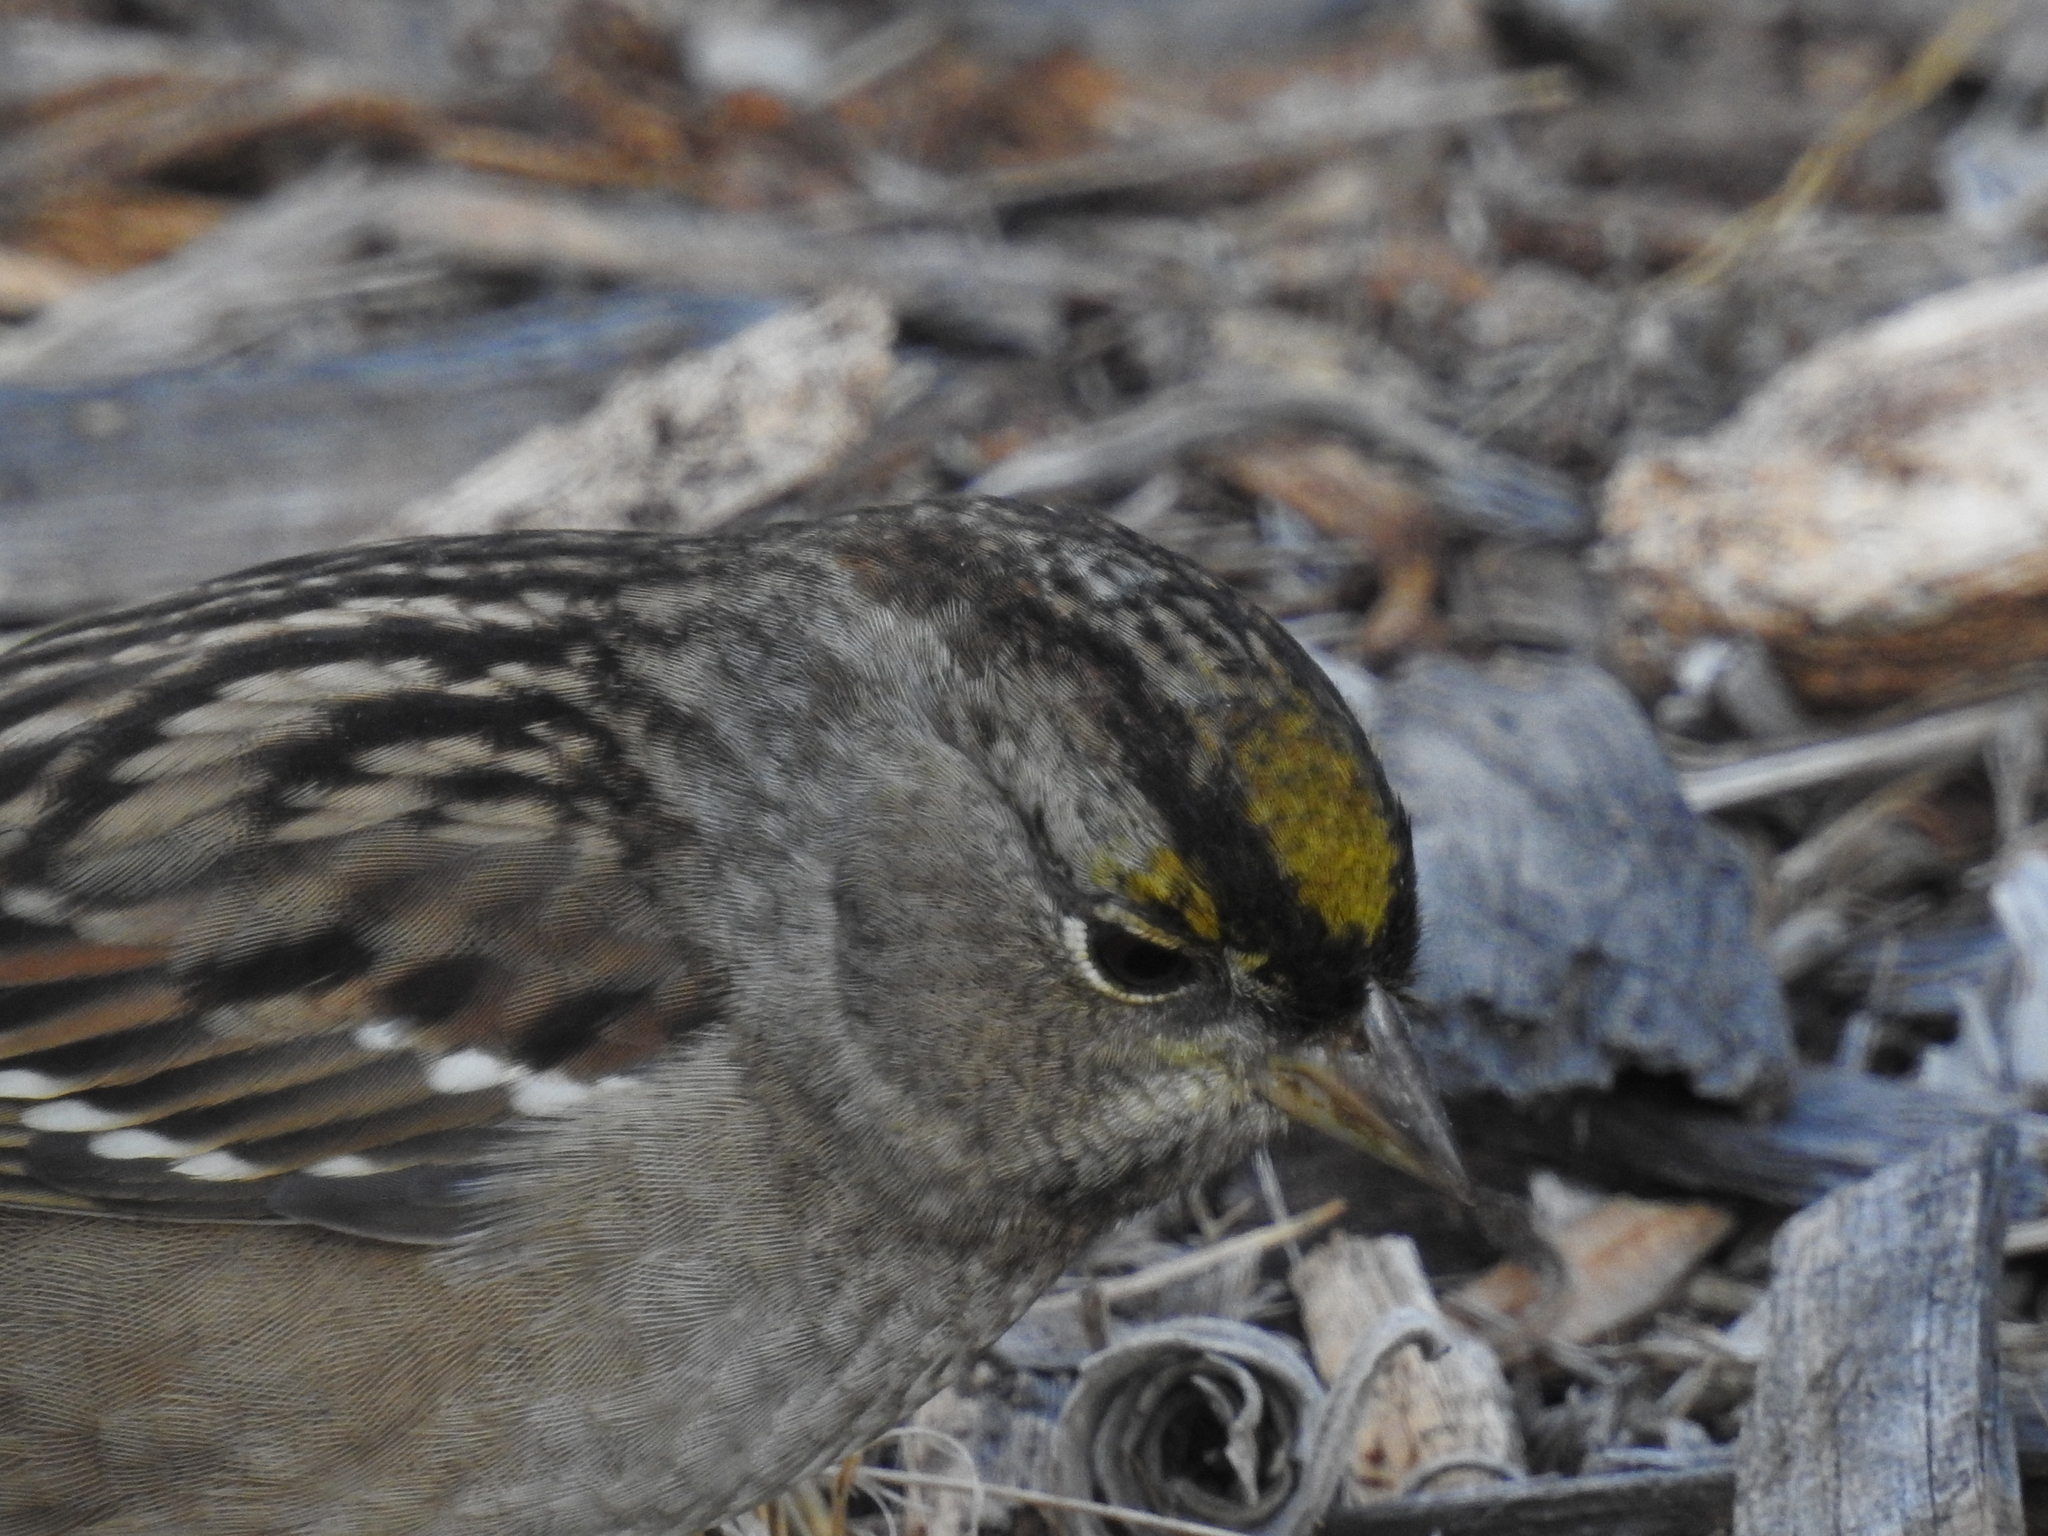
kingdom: Animalia
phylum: Chordata
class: Aves
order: Passeriformes
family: Passerellidae
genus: Zonotrichia
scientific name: Zonotrichia atricapilla
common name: Golden-crowned sparrow
